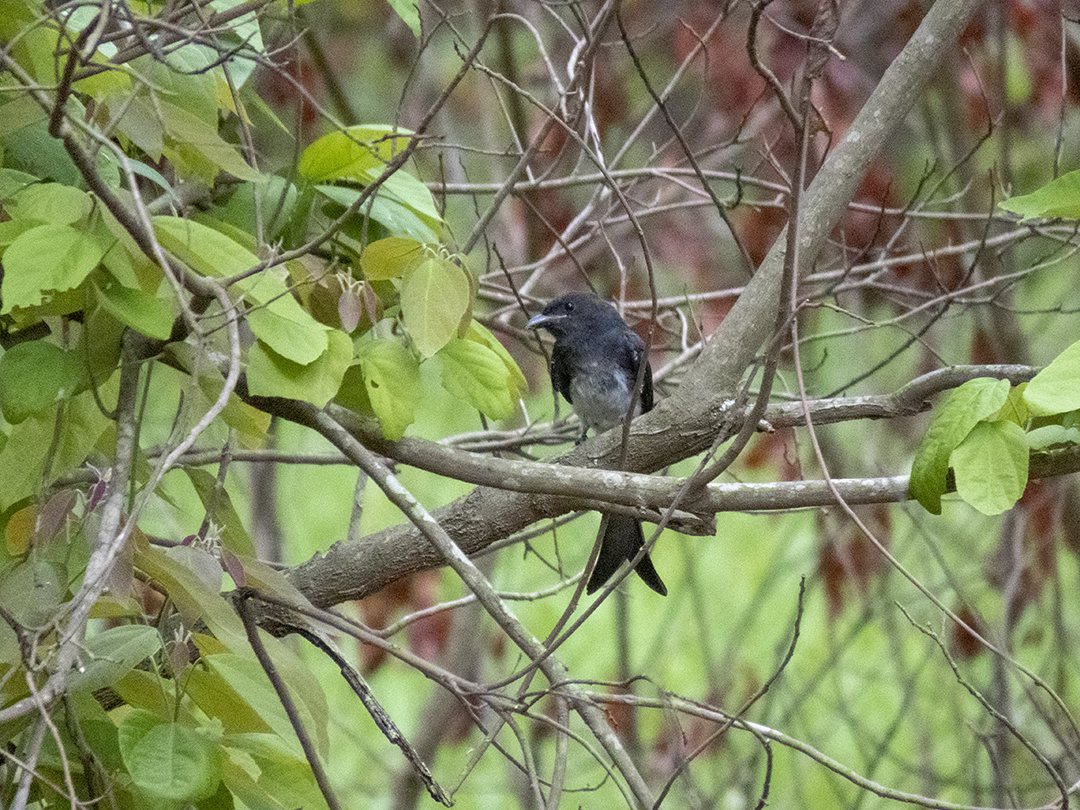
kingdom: Animalia
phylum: Chordata
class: Aves
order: Passeriformes
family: Dicruridae
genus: Dicrurus
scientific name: Dicrurus caerulescens
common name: White-bellied drongo
